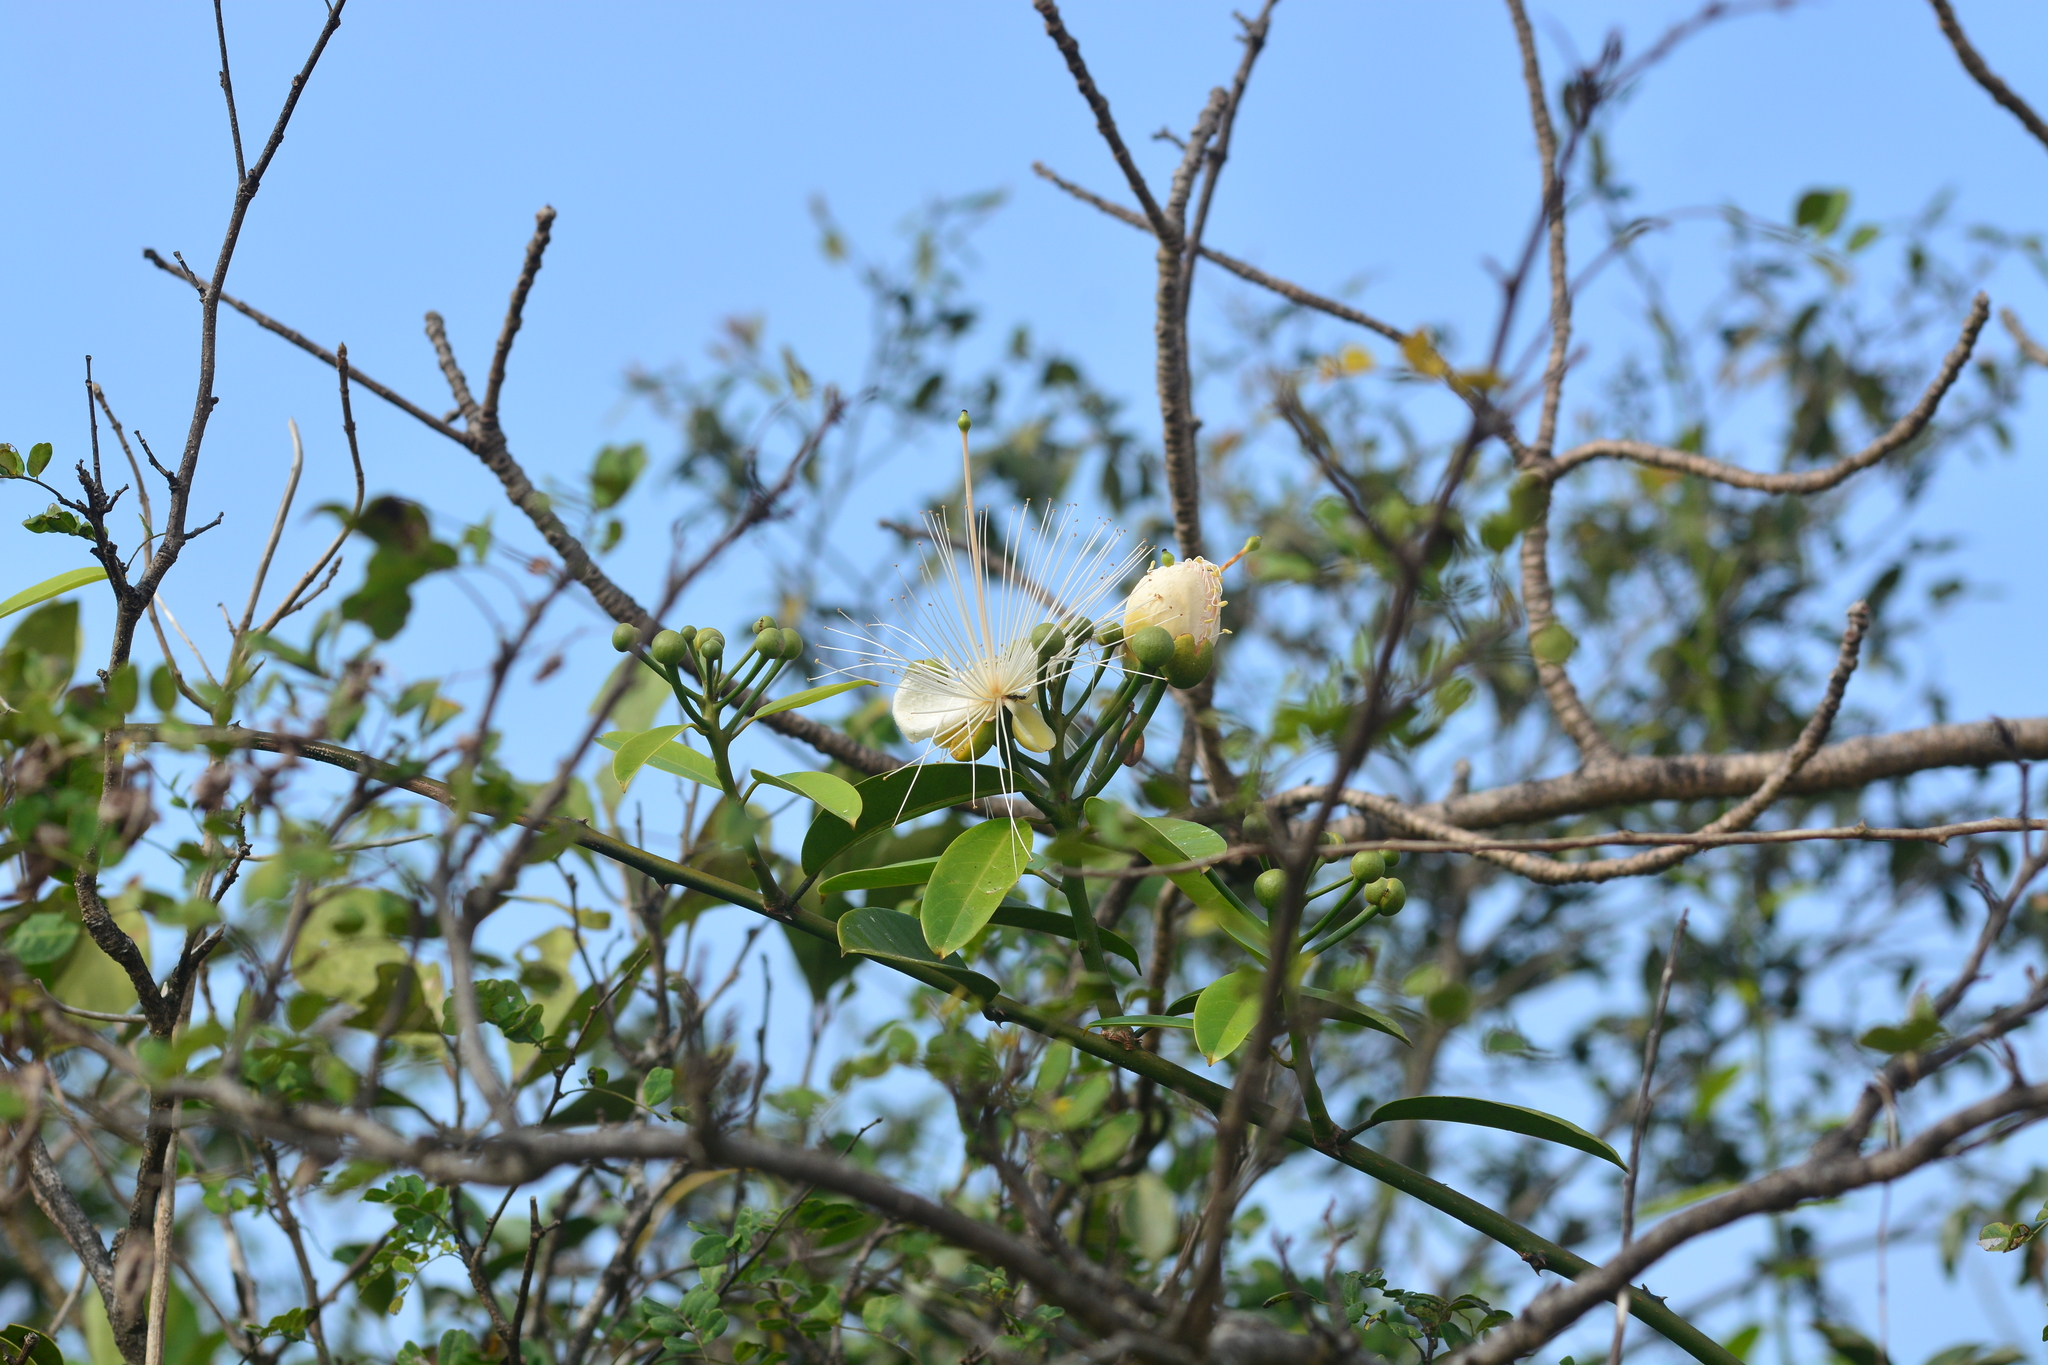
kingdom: Plantae
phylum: Tracheophyta
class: Magnoliopsida
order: Brassicales
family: Capparaceae
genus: Capparis
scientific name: Capparis moonii
